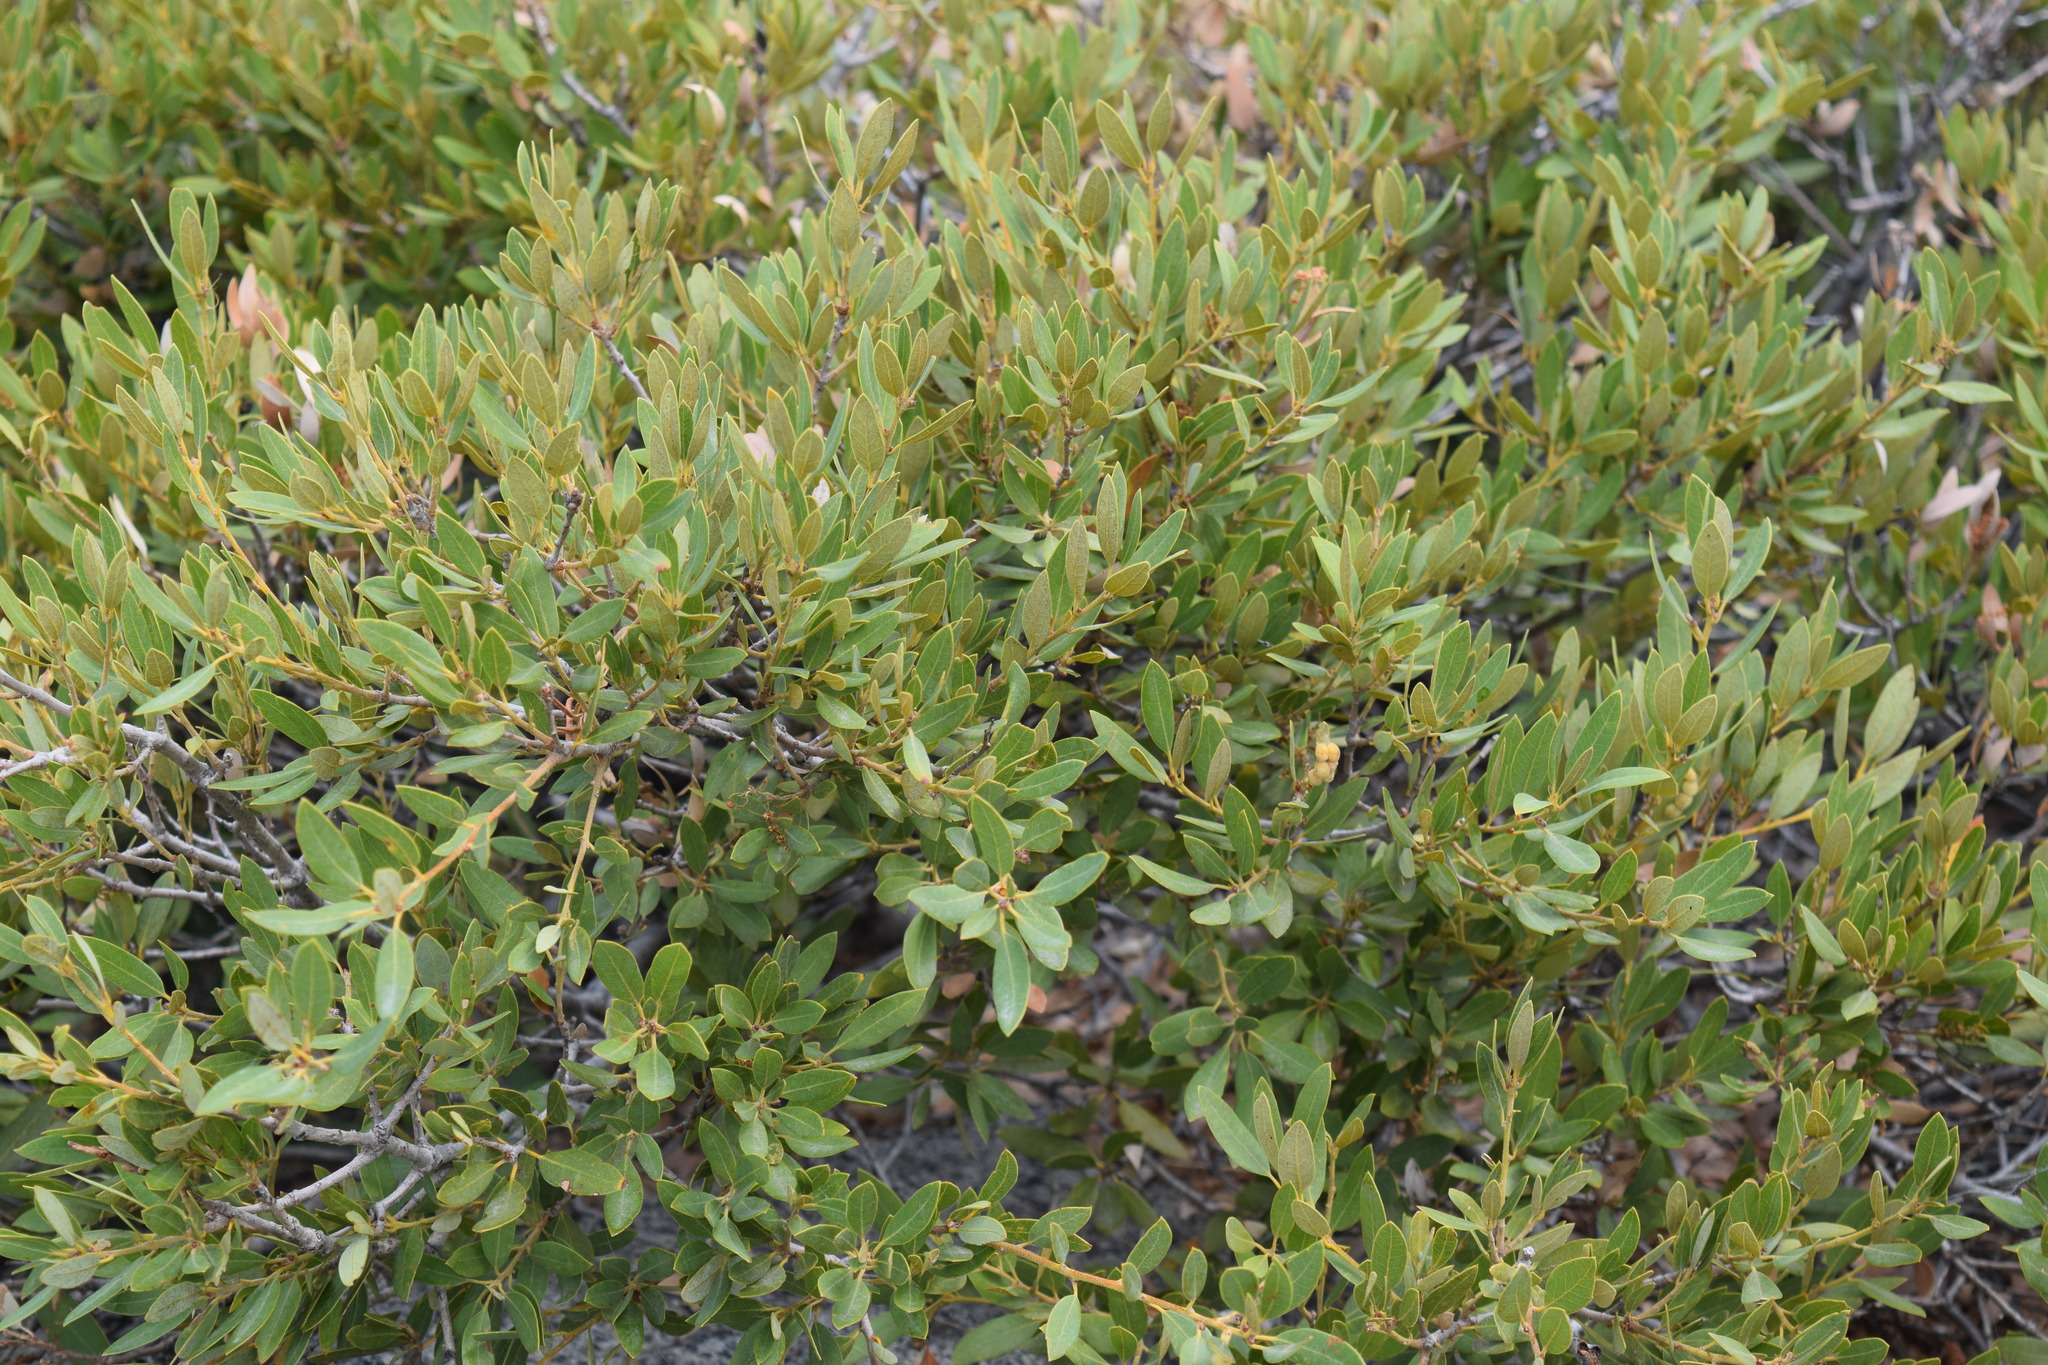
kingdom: Plantae
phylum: Tracheophyta
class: Magnoliopsida
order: Fagales
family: Fagaceae
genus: Chrysolepis
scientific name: Chrysolepis sempervirens
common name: Bush chinquapin
